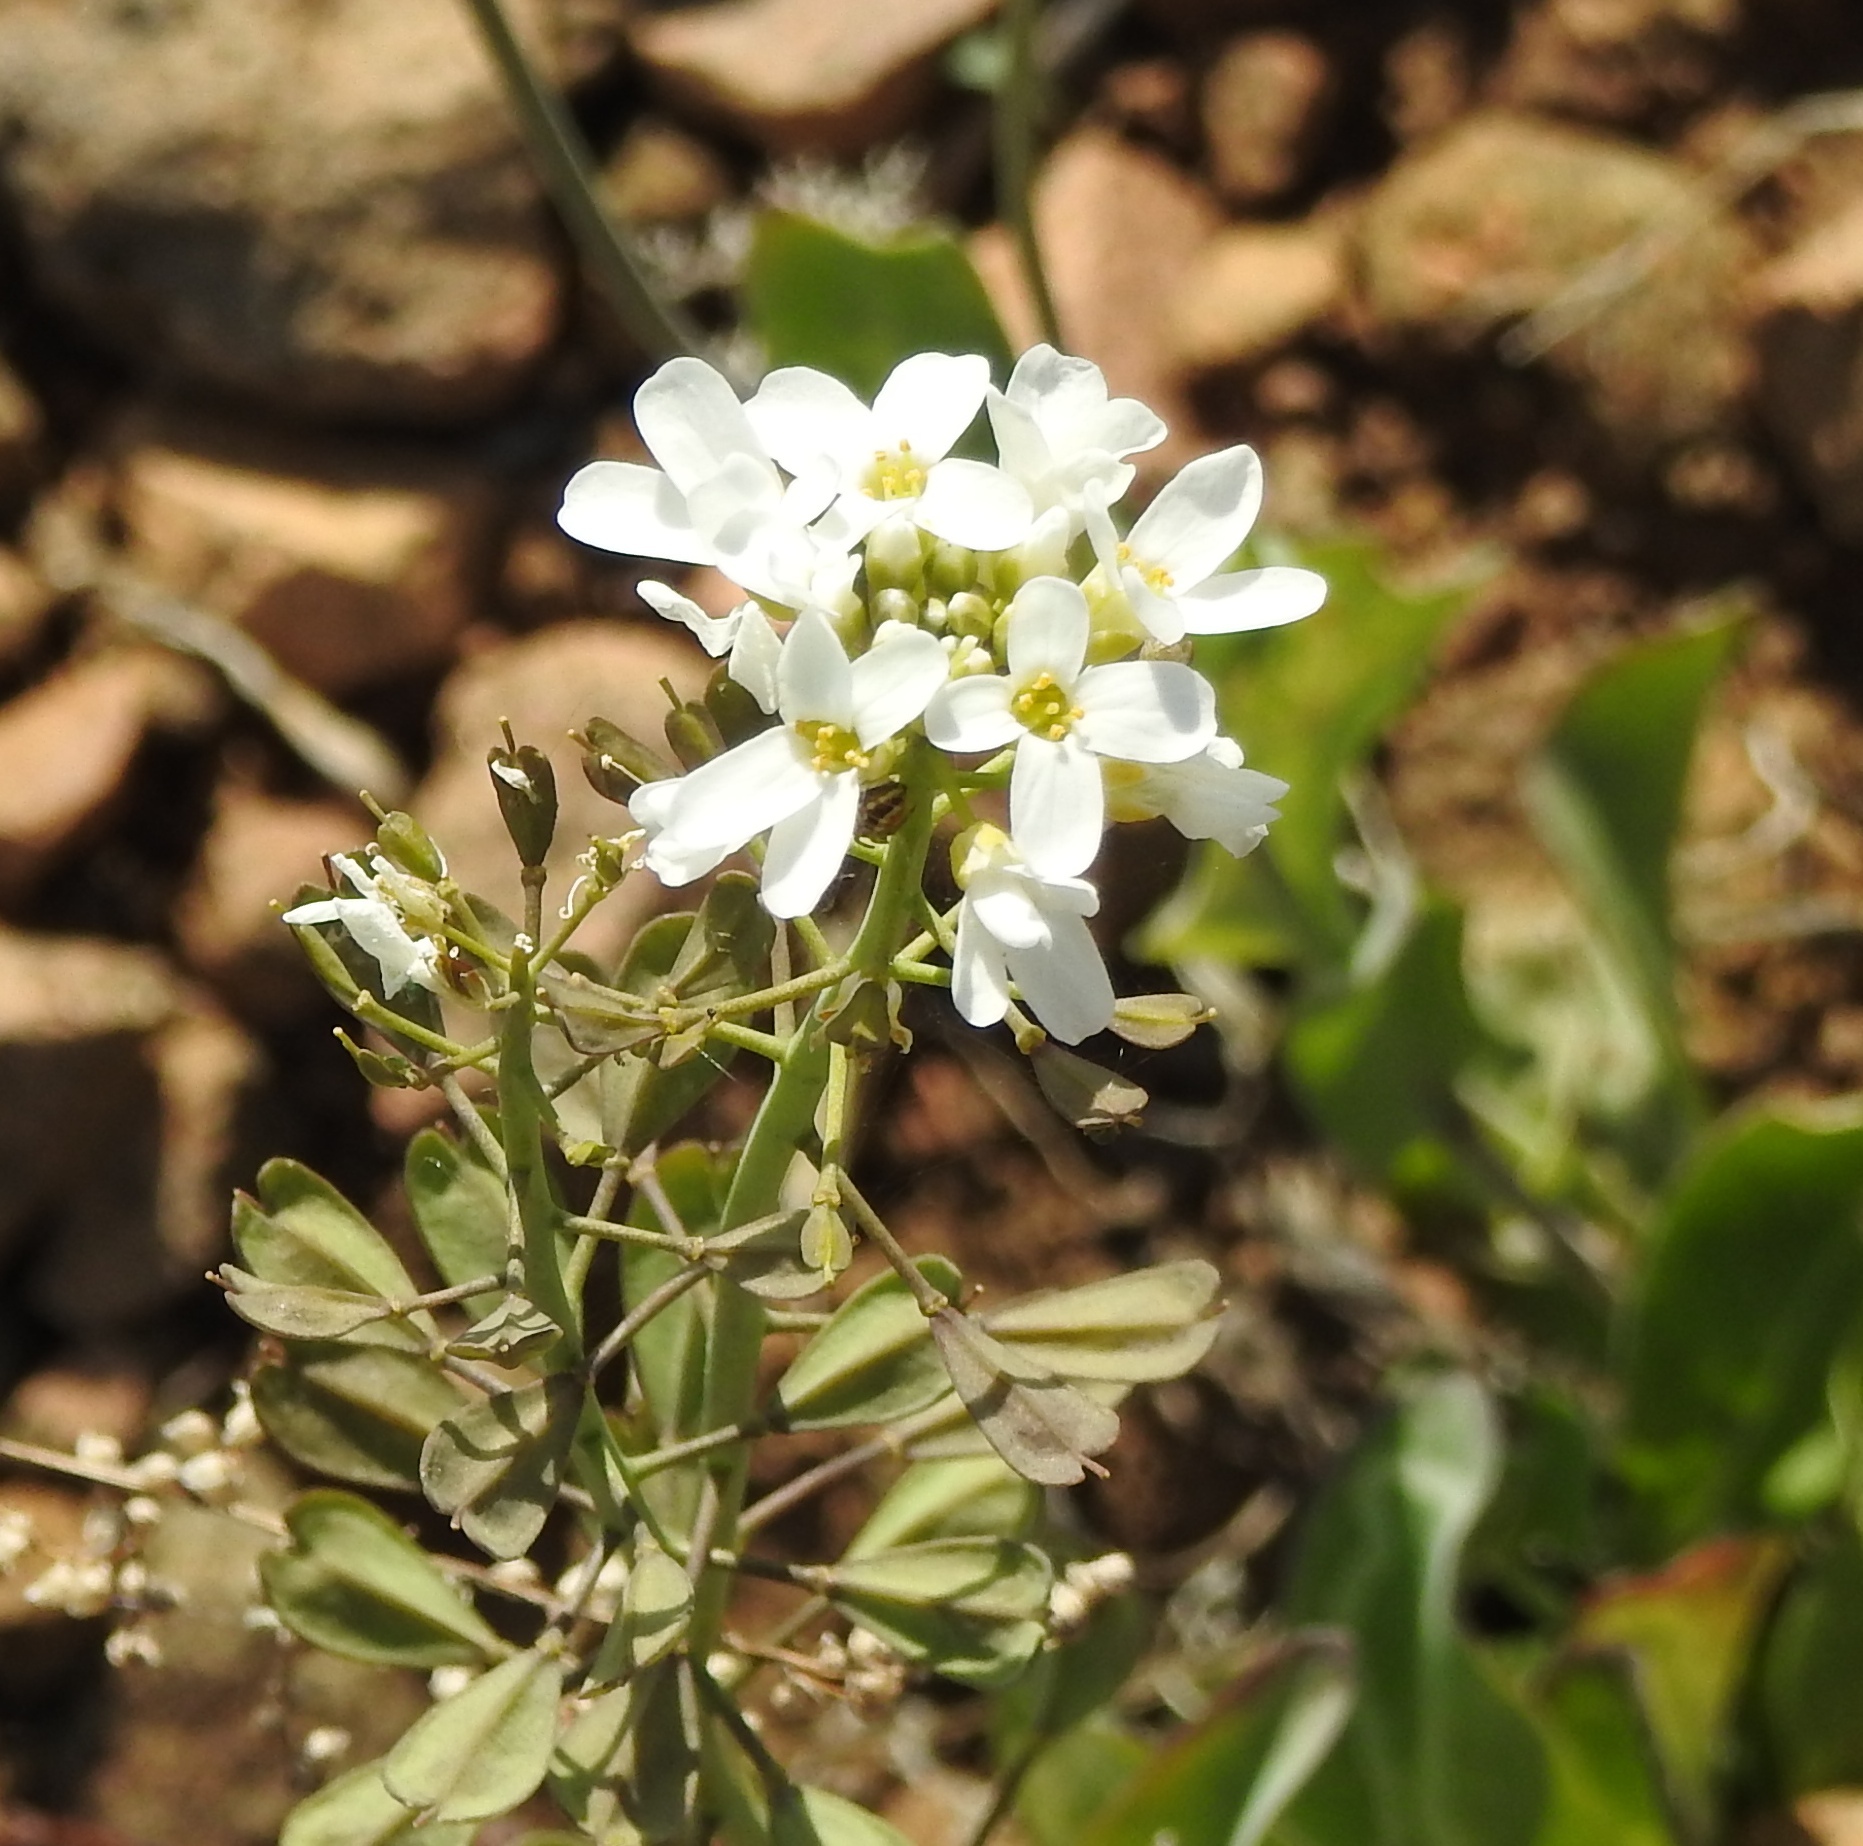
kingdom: Plantae
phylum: Tracheophyta
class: Magnoliopsida
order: Brassicales
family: Brassicaceae
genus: Noccaea
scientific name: Noccaea thlaspidioides
